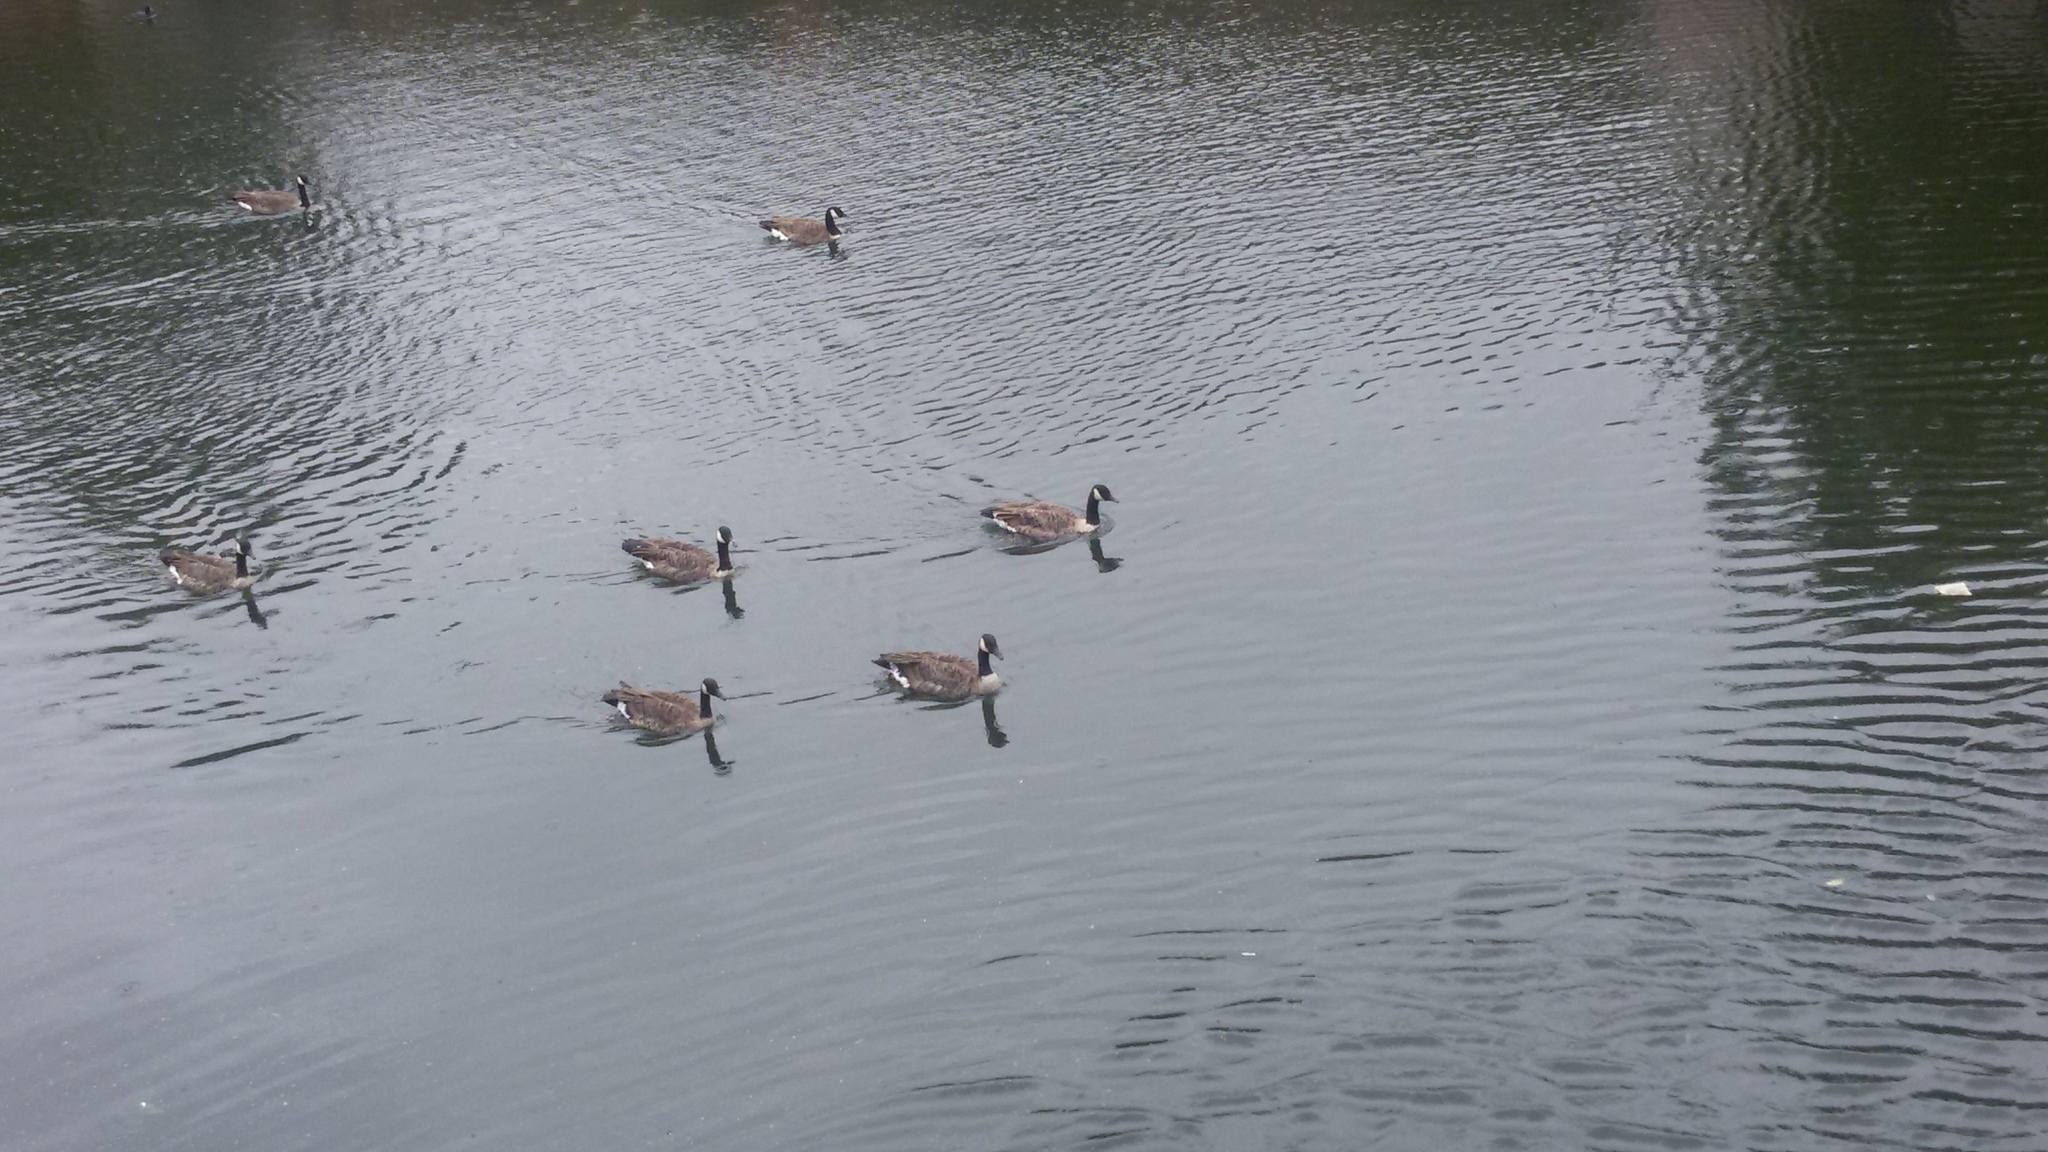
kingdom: Animalia
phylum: Chordata
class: Aves
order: Anseriformes
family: Anatidae
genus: Branta
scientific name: Branta canadensis
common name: Canada goose
